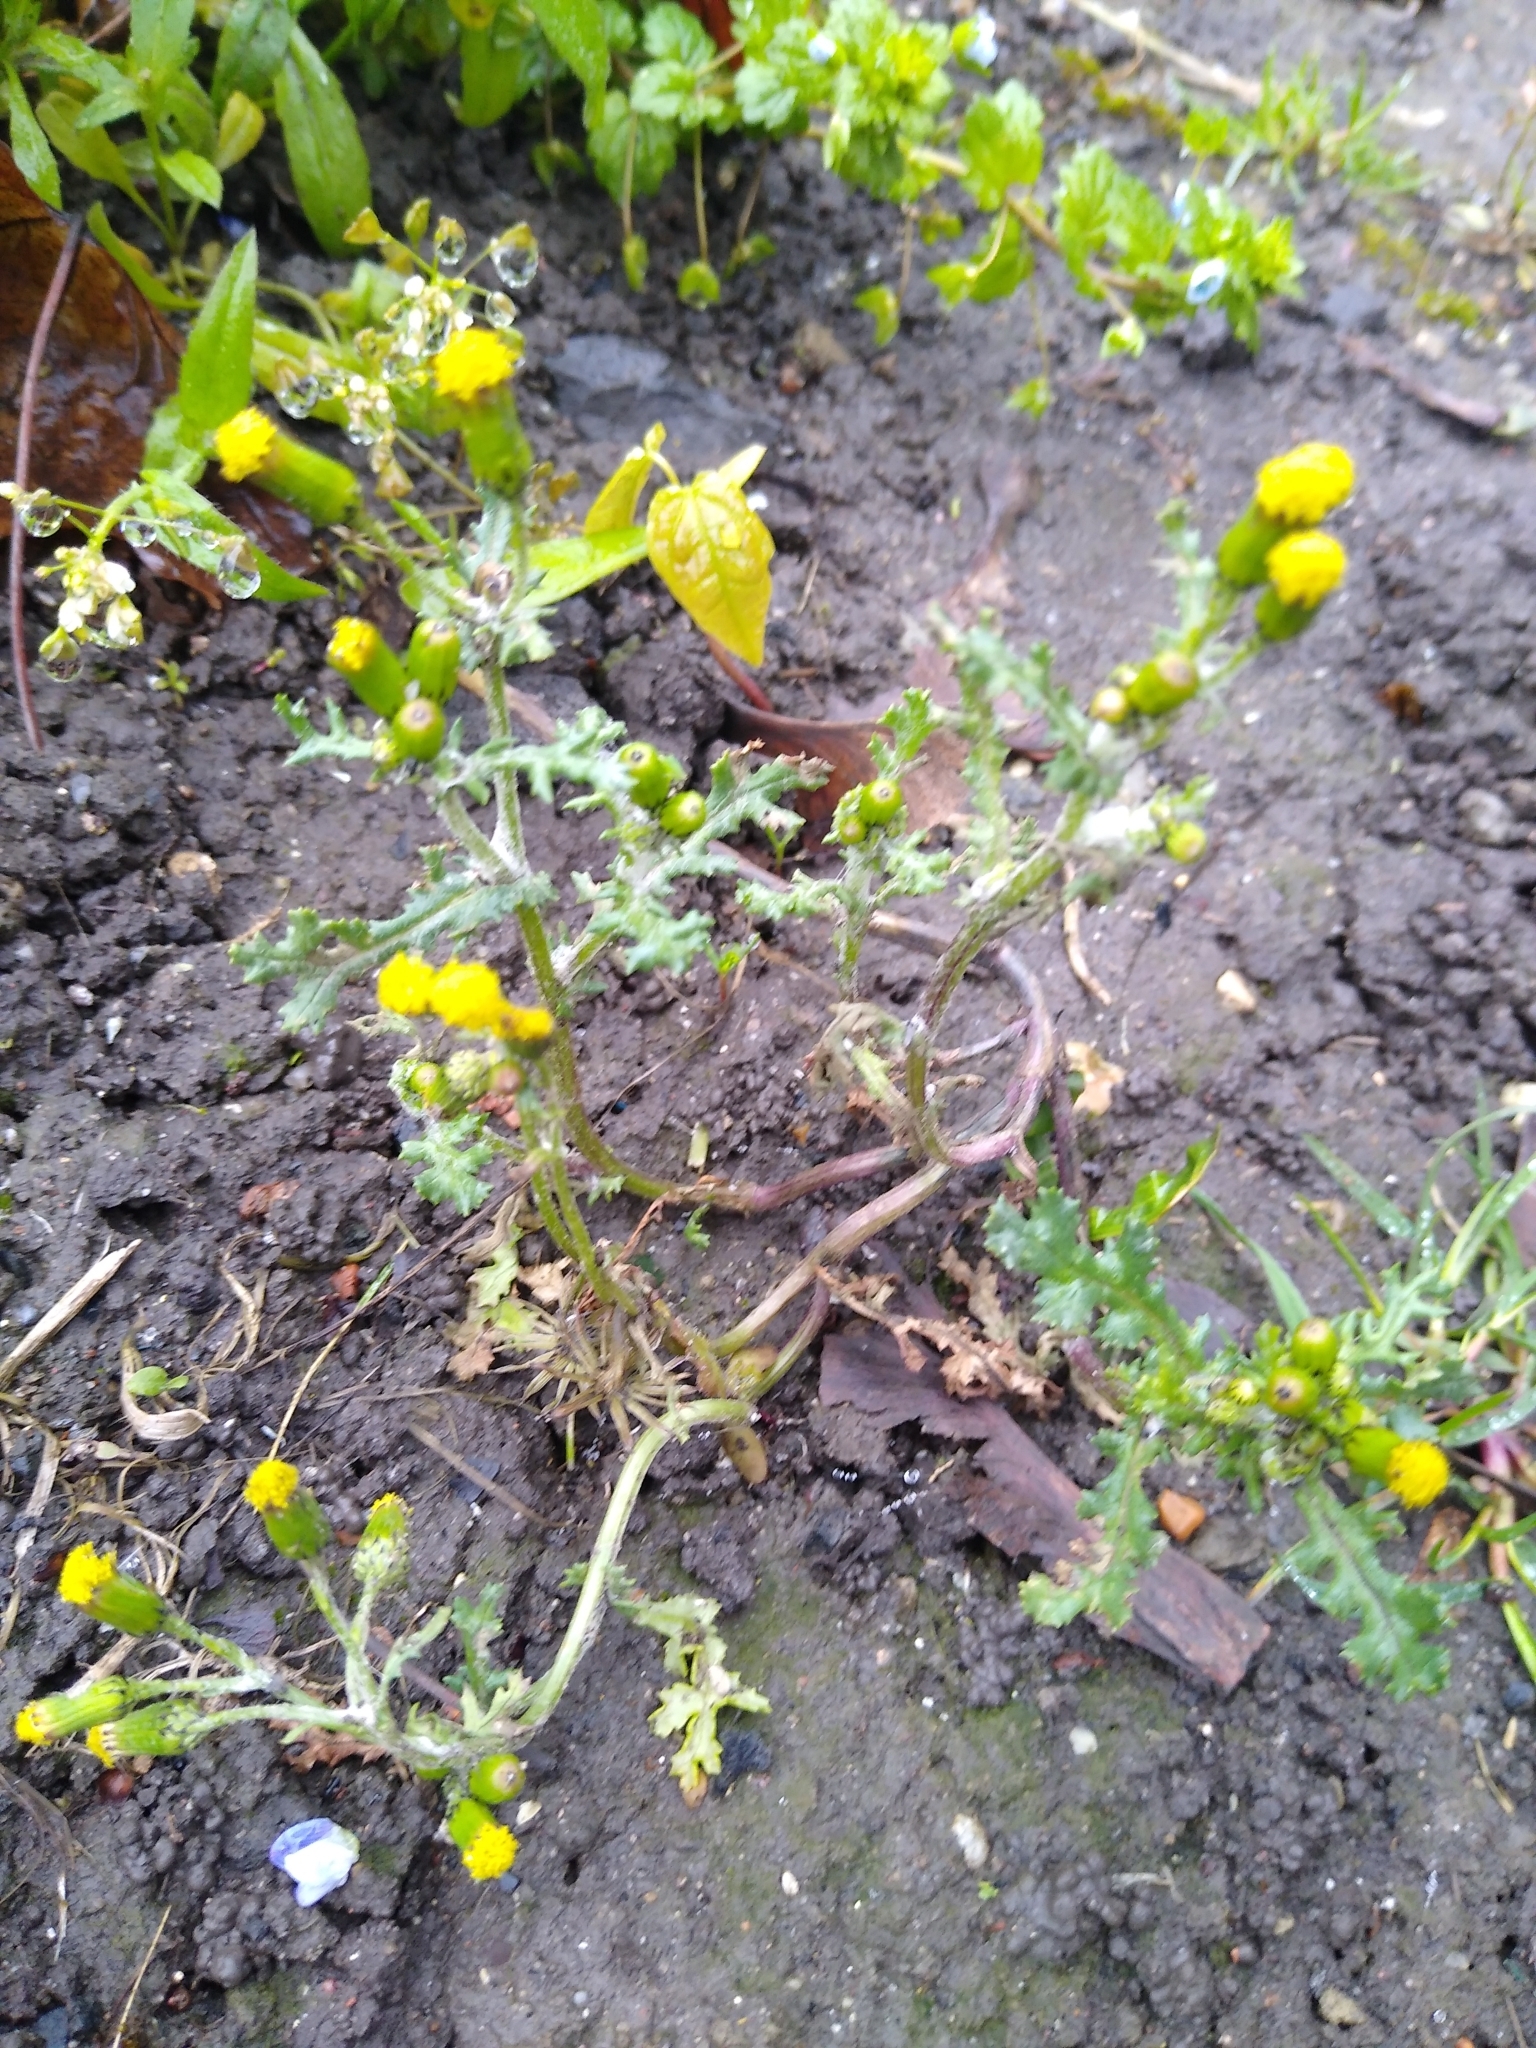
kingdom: Plantae
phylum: Tracheophyta
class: Magnoliopsida
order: Asterales
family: Asteraceae
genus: Senecio
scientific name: Senecio vulgaris
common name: Old-man-in-the-spring
